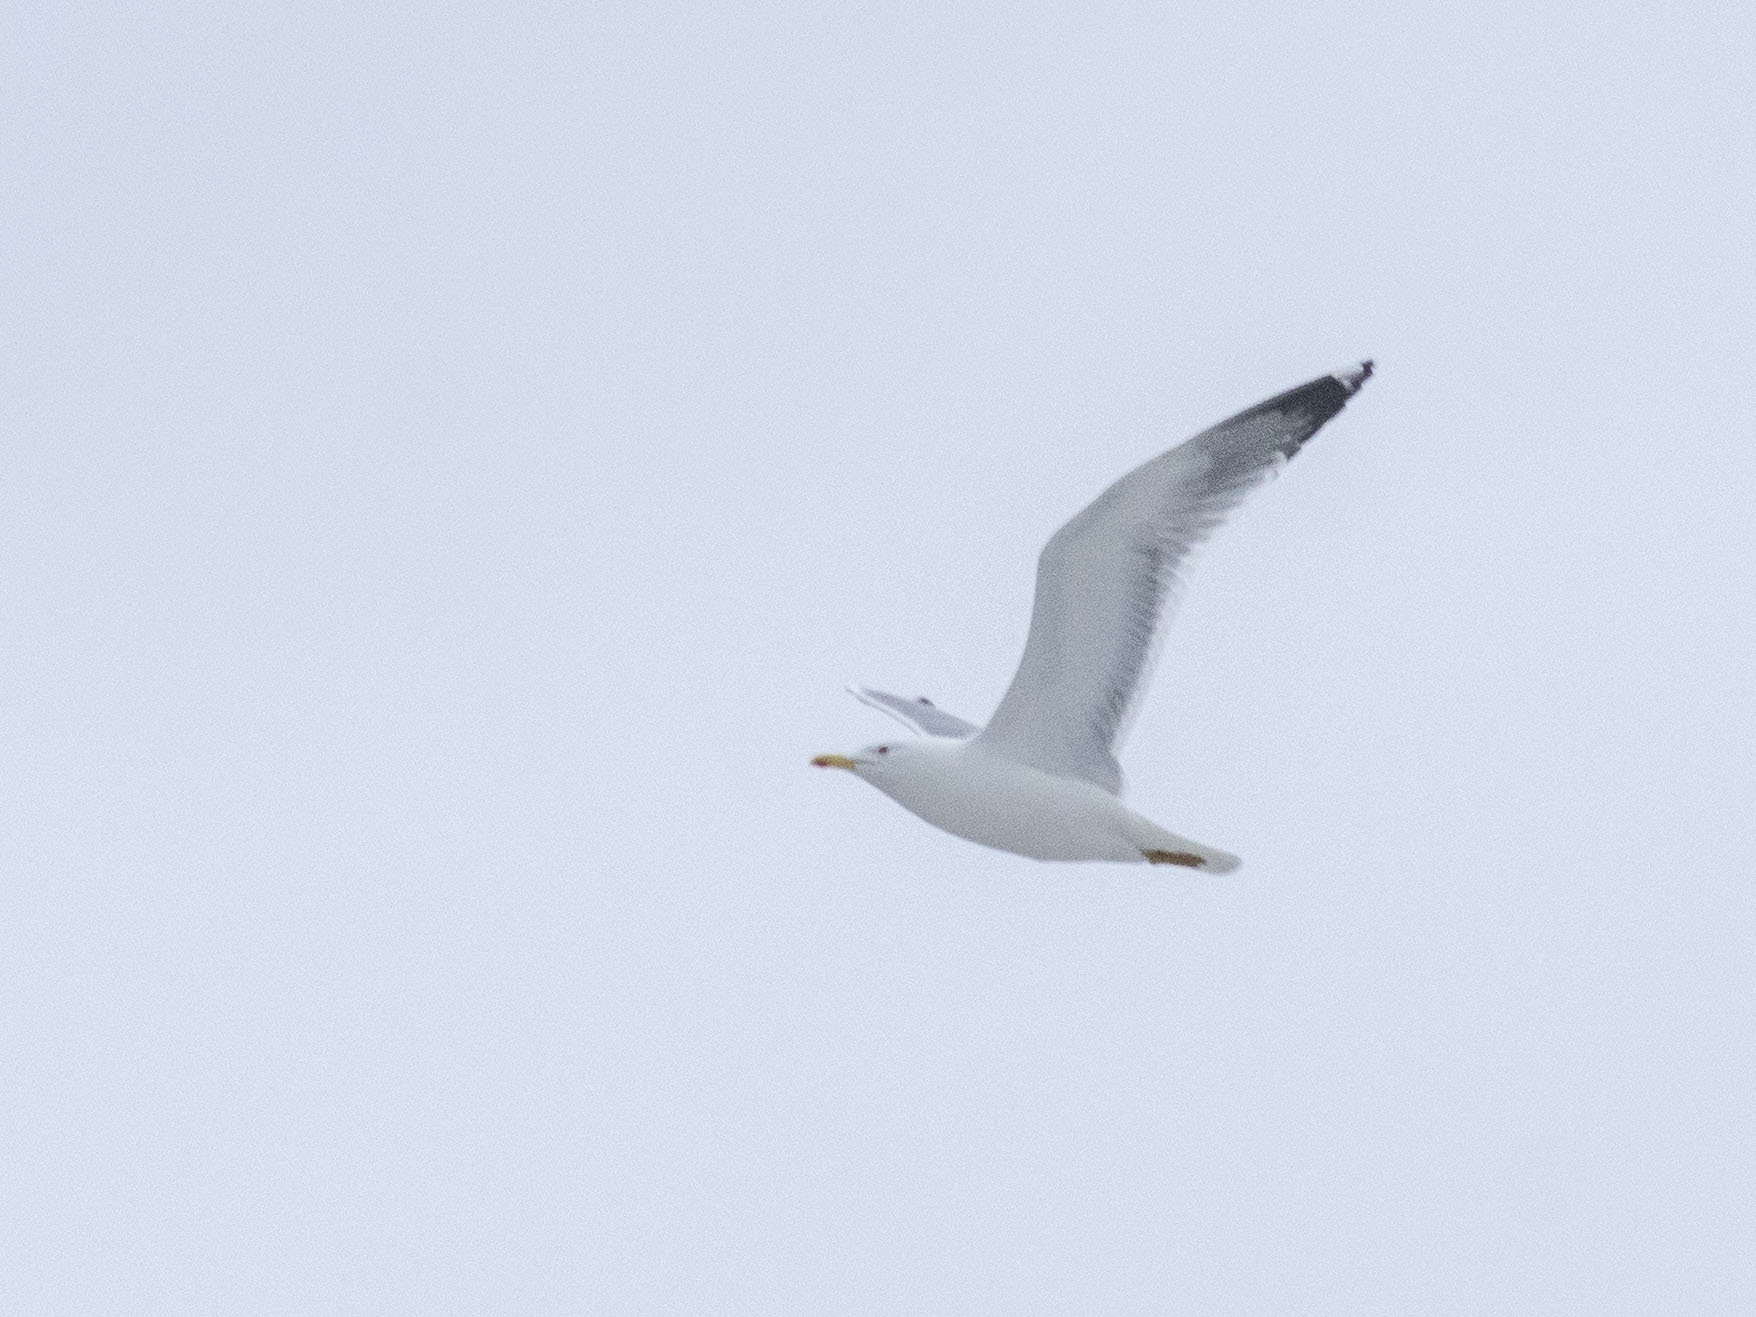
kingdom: Animalia
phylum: Chordata
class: Aves
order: Charadriiformes
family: Laridae
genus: Larus
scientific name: Larus cachinnans
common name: Caspian gull
